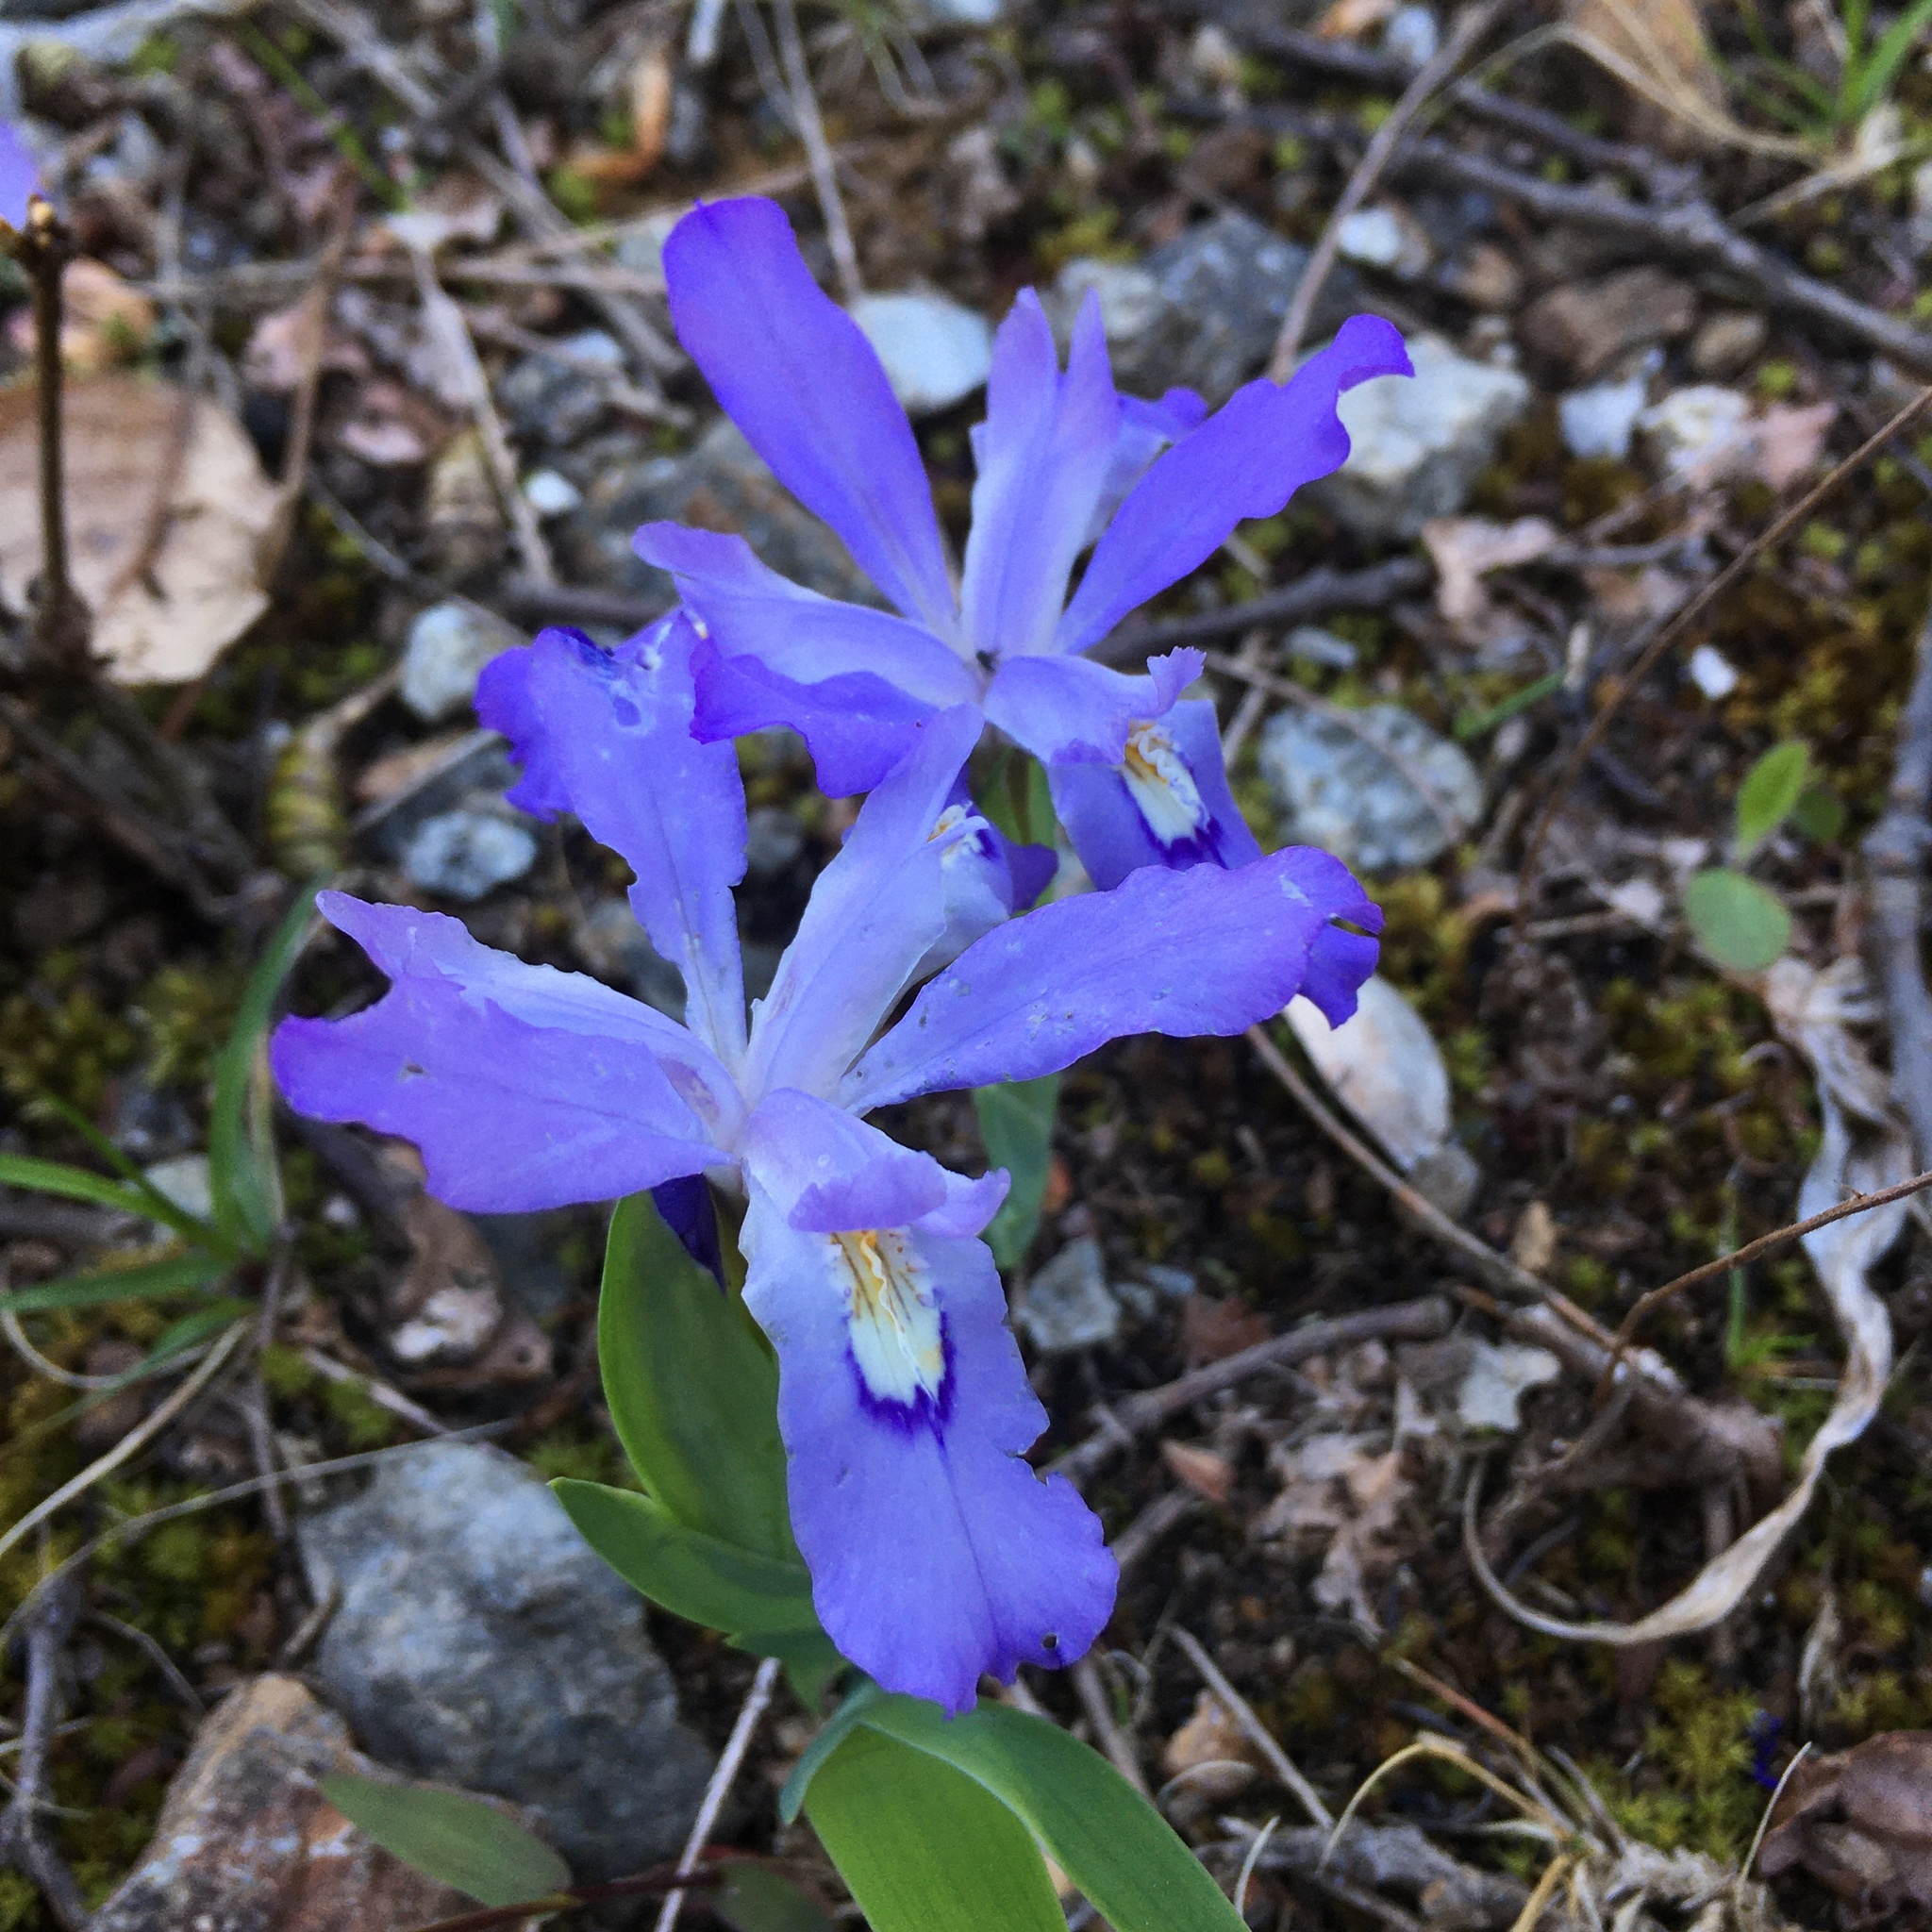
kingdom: Plantae
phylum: Tracheophyta
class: Liliopsida
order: Asparagales
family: Iridaceae
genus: Iris
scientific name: Iris cristata
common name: Crested iris
